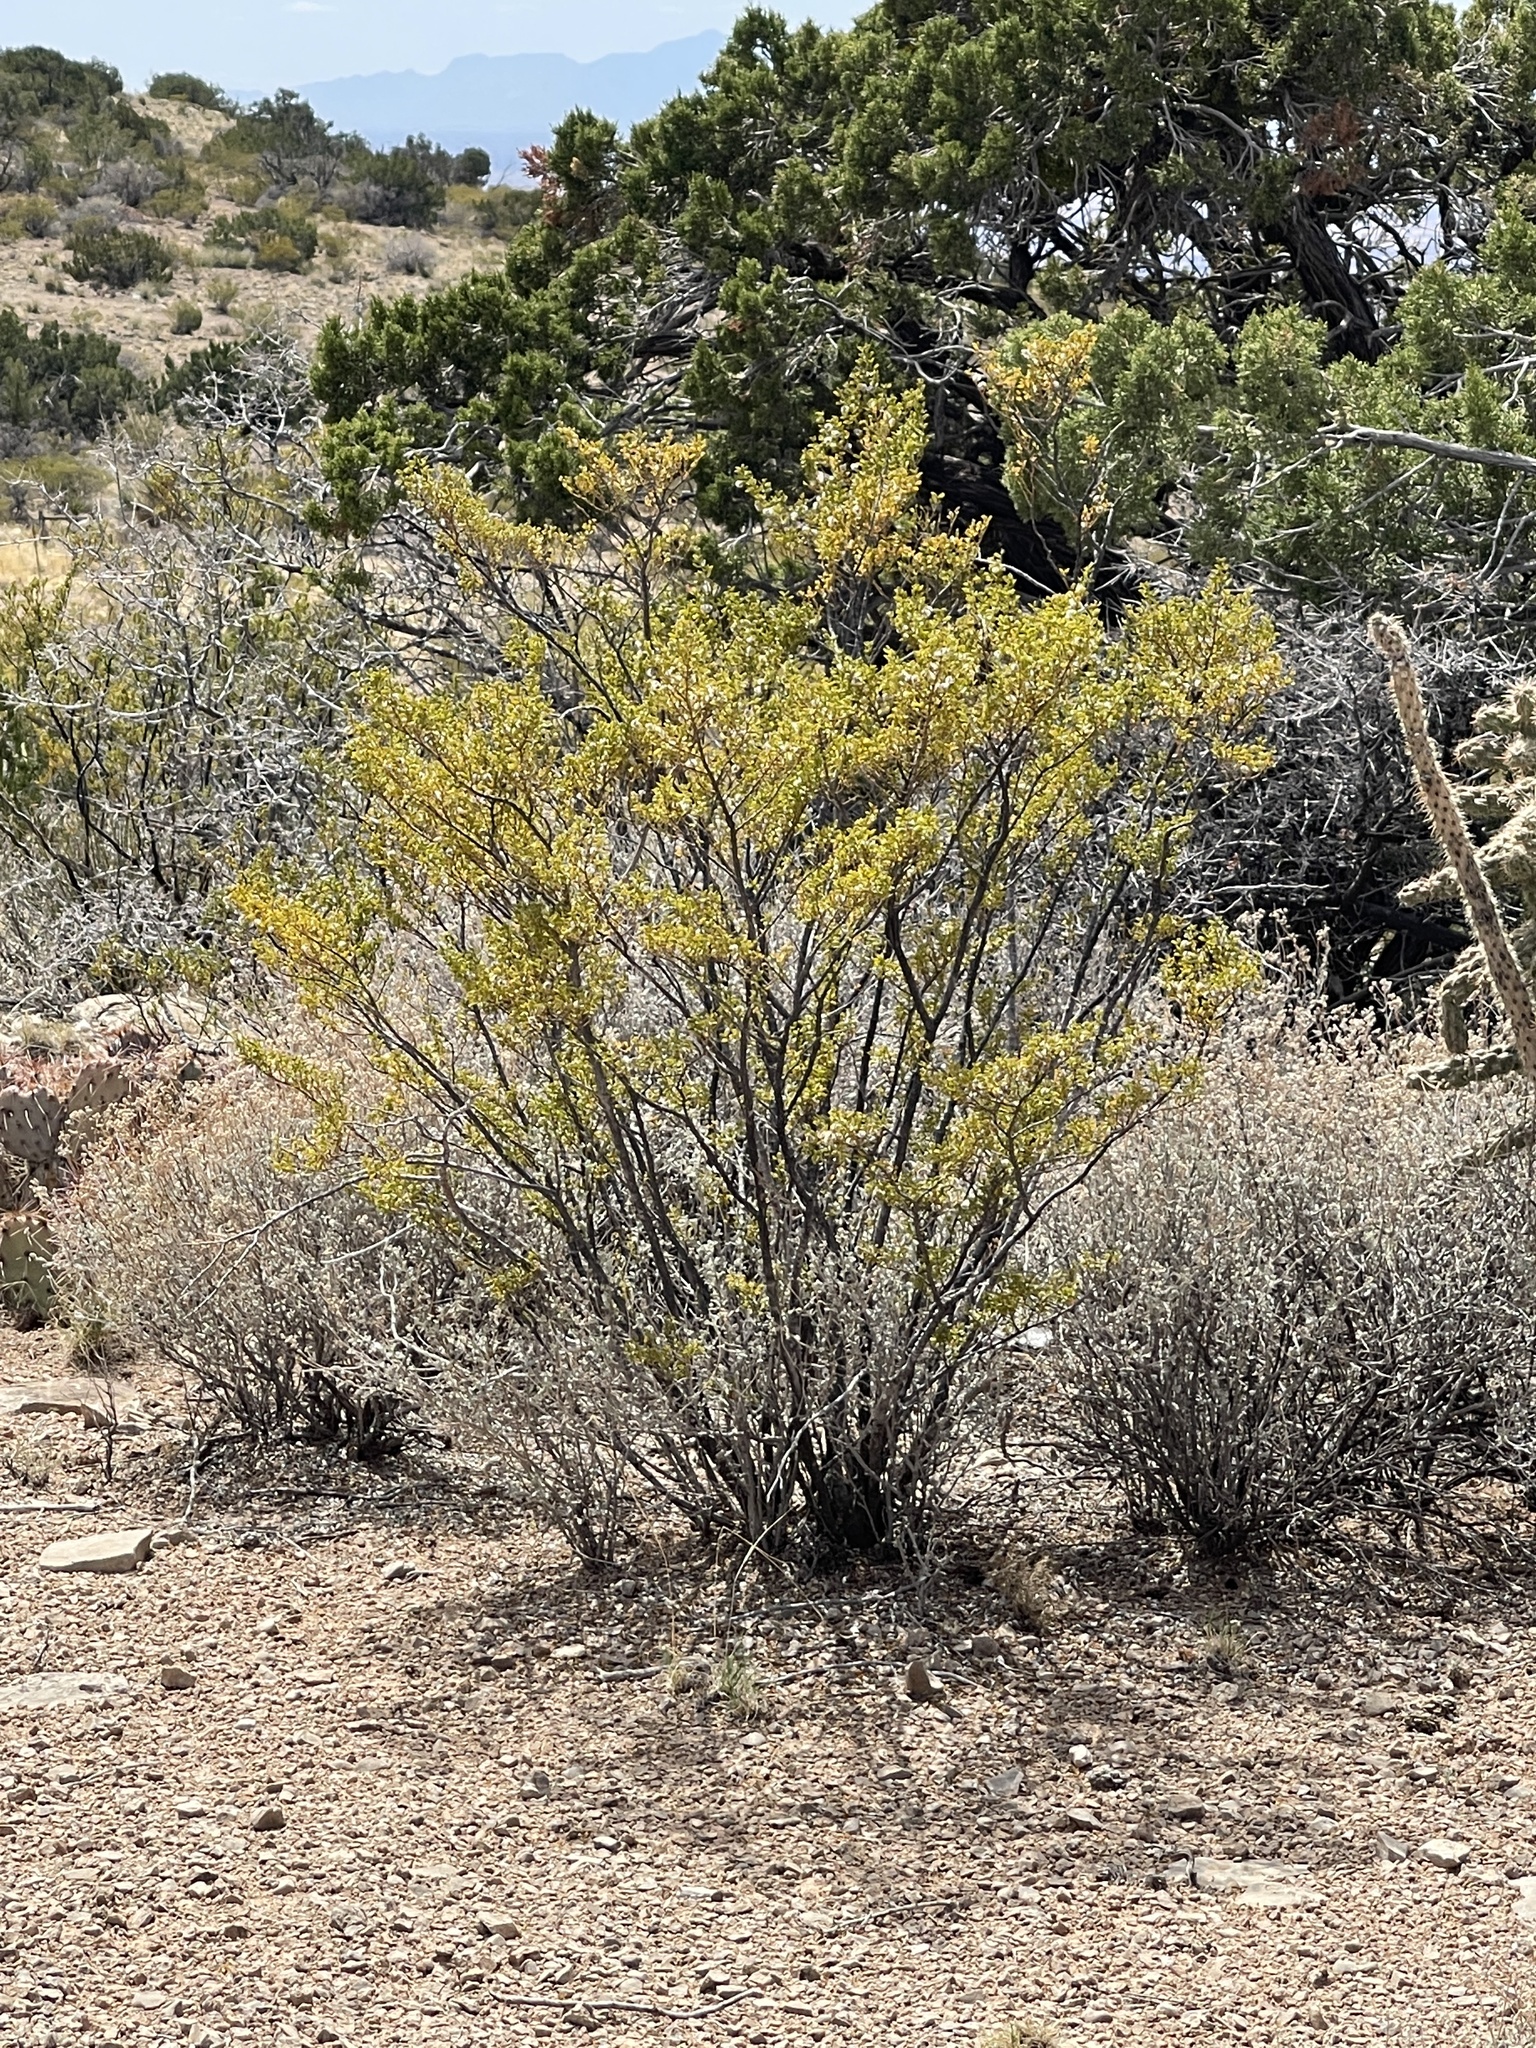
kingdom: Plantae
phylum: Tracheophyta
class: Magnoliopsida
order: Zygophyllales
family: Zygophyllaceae
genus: Larrea
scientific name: Larrea tridentata
